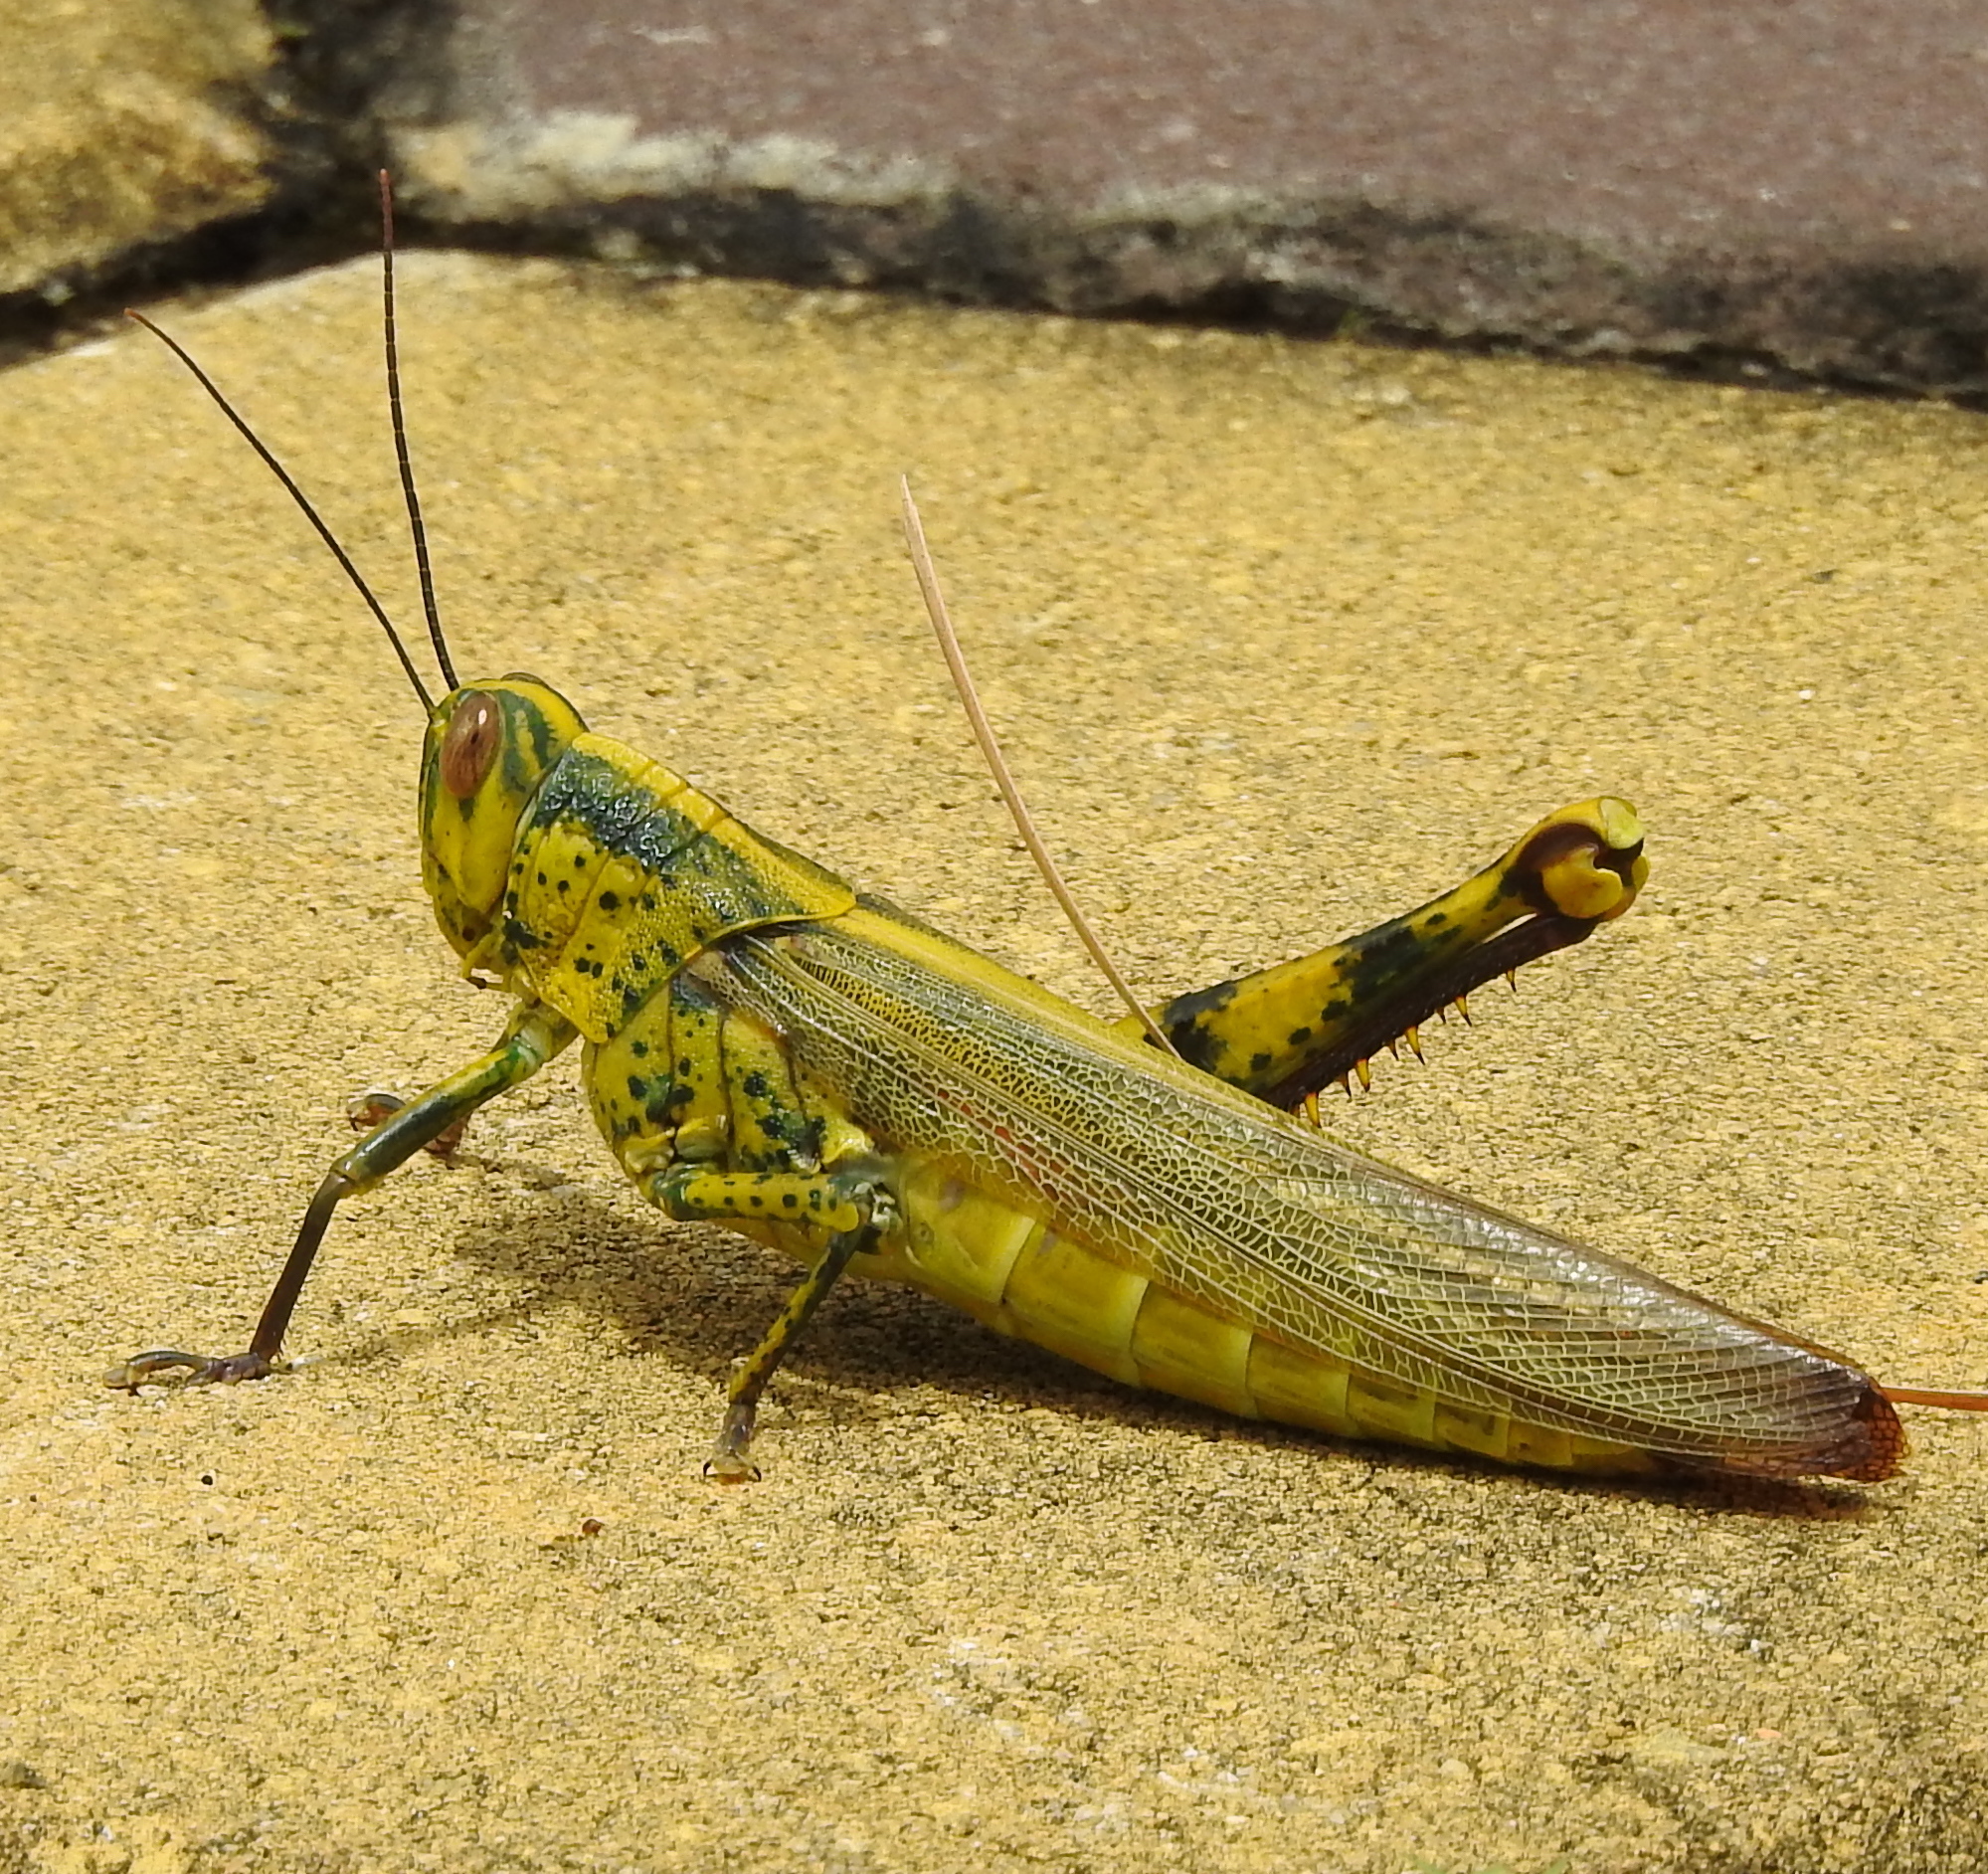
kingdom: Animalia
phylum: Arthropoda
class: Insecta
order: Orthoptera
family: Acrididae
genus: Valanga
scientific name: Valanga nigricornis
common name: Javanese bird grasshopper
